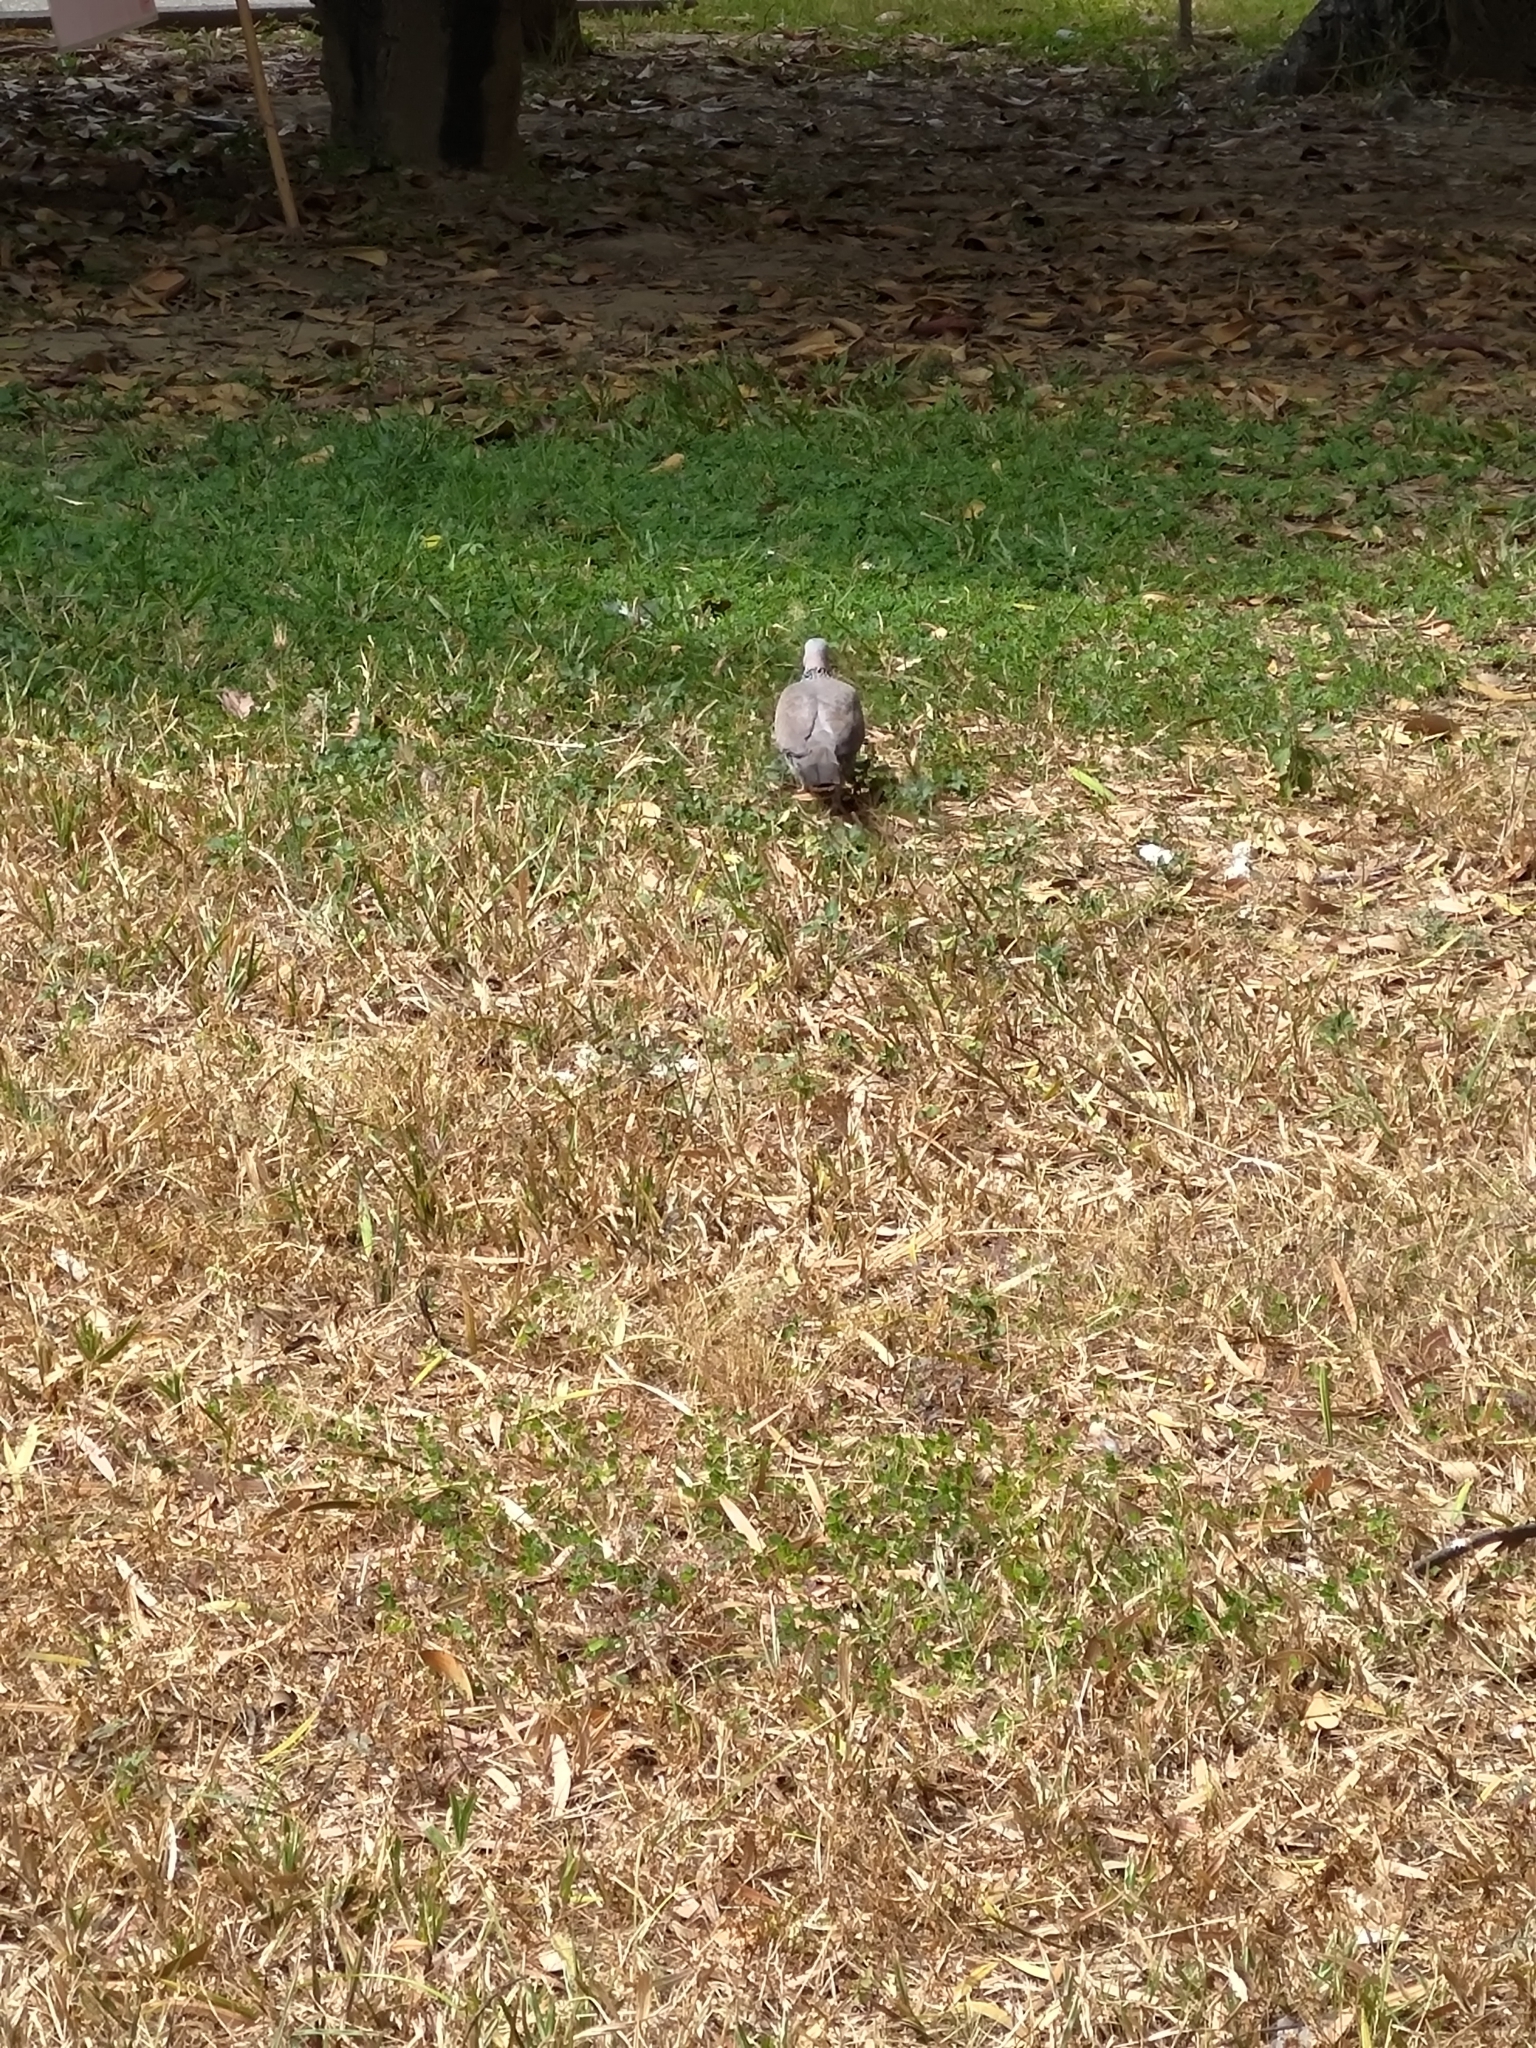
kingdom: Animalia
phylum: Chordata
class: Aves
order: Columbiformes
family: Columbidae
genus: Spilopelia
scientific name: Spilopelia chinensis
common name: Spotted dove
